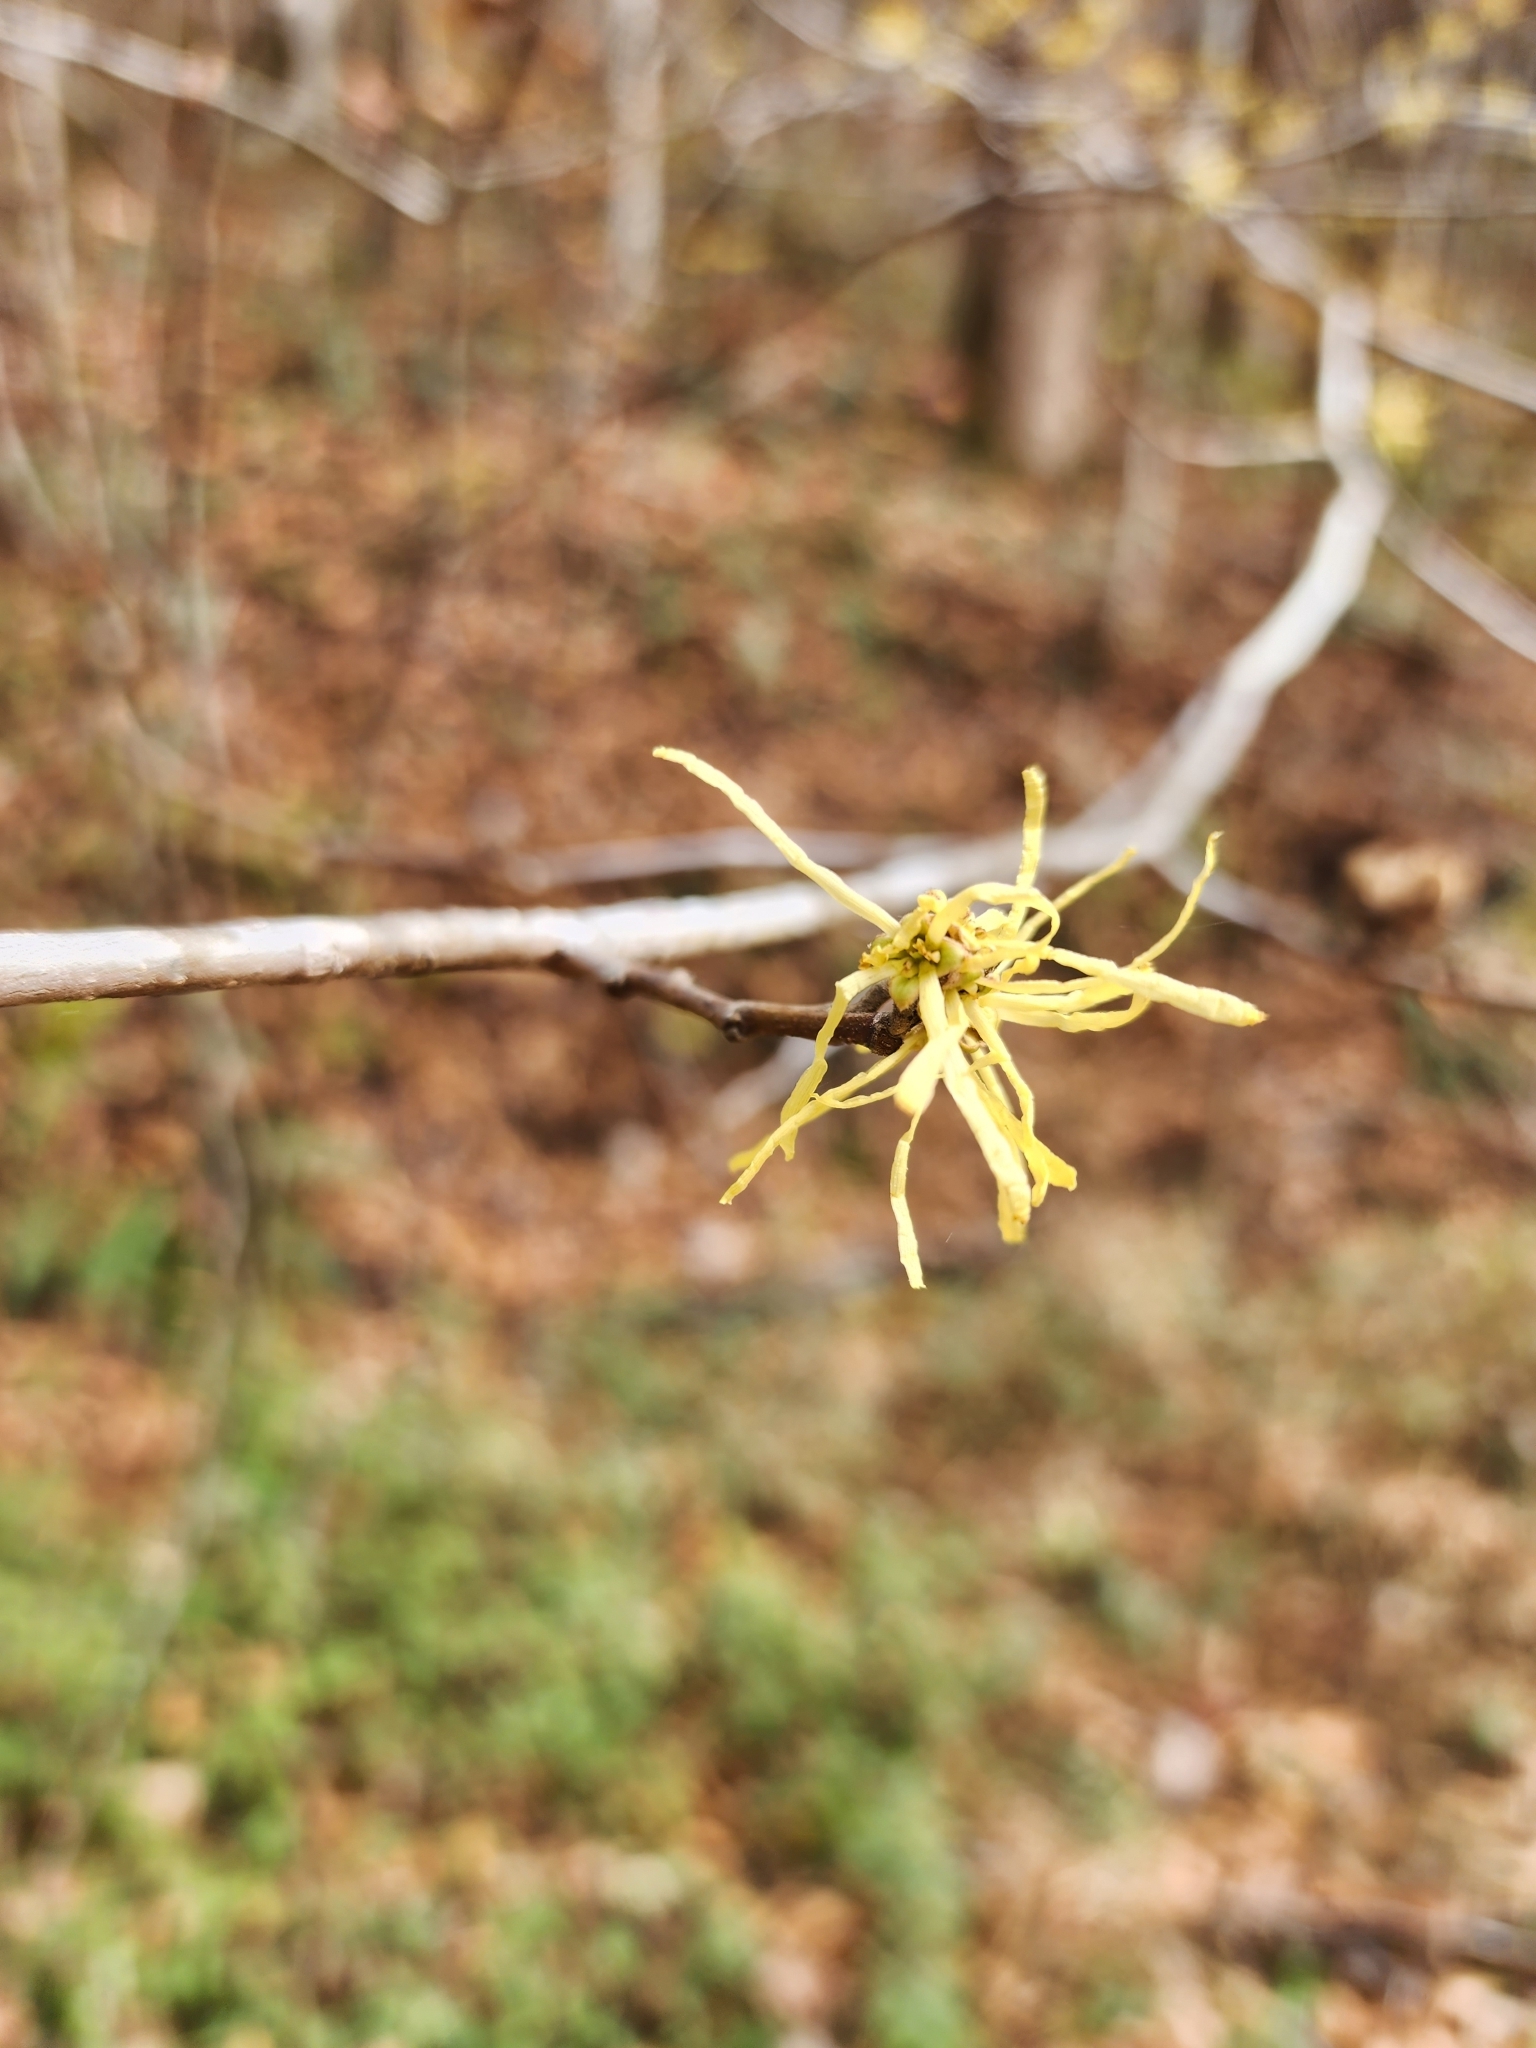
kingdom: Plantae
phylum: Tracheophyta
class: Magnoliopsida
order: Saxifragales
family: Hamamelidaceae
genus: Hamamelis
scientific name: Hamamelis virginiana
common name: Witch-hazel
